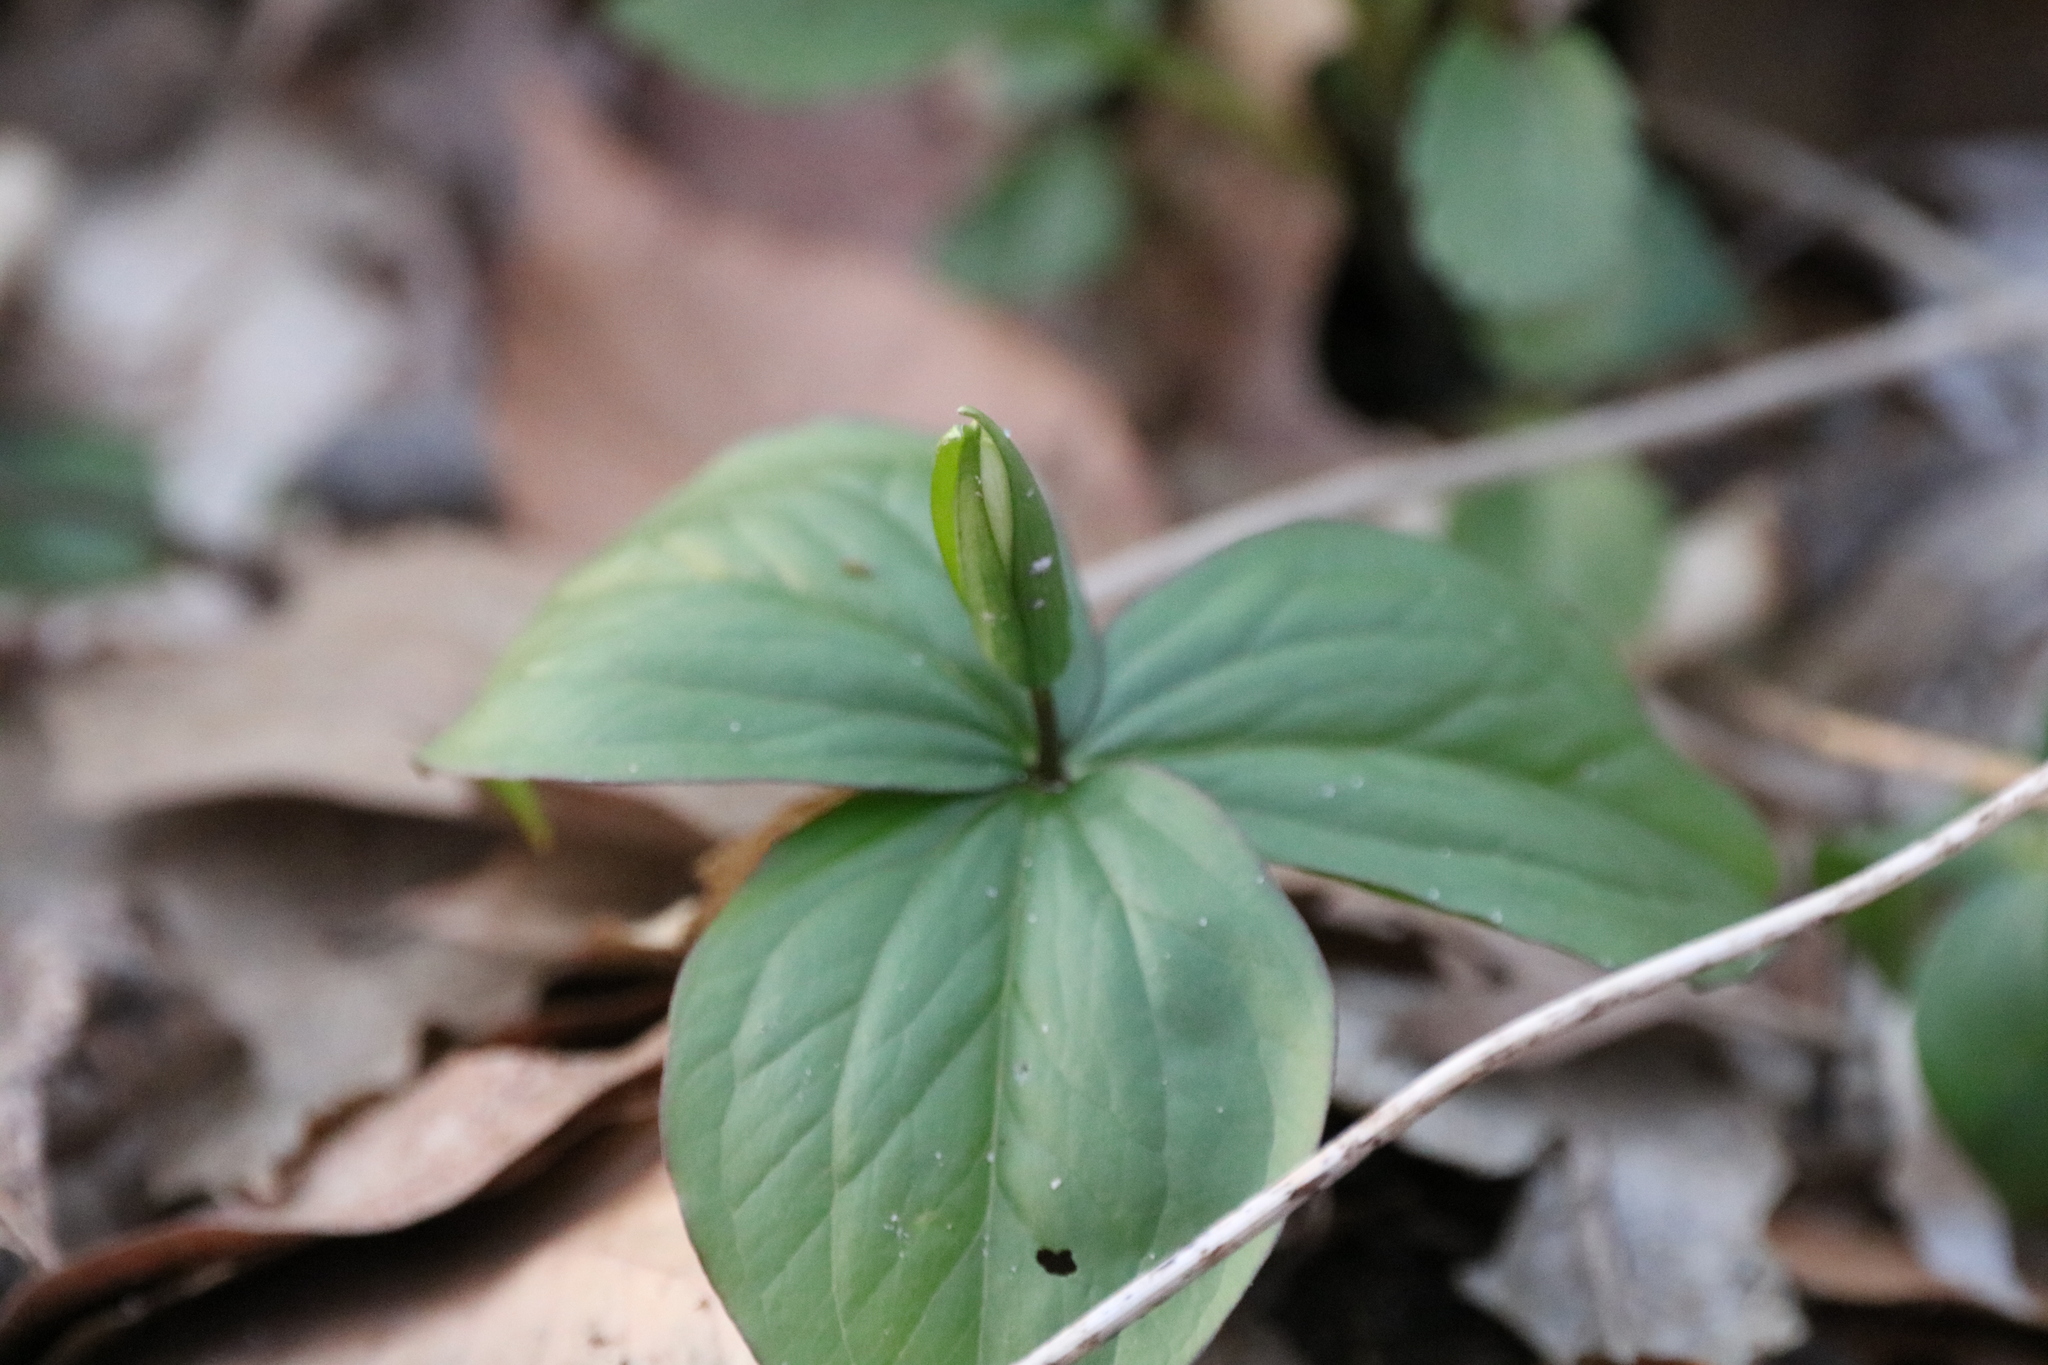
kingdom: Plantae
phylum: Tracheophyta
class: Liliopsida
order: Liliales
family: Melanthiaceae
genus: Trillium
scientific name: Trillium grandiflorum
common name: Great white trillium
